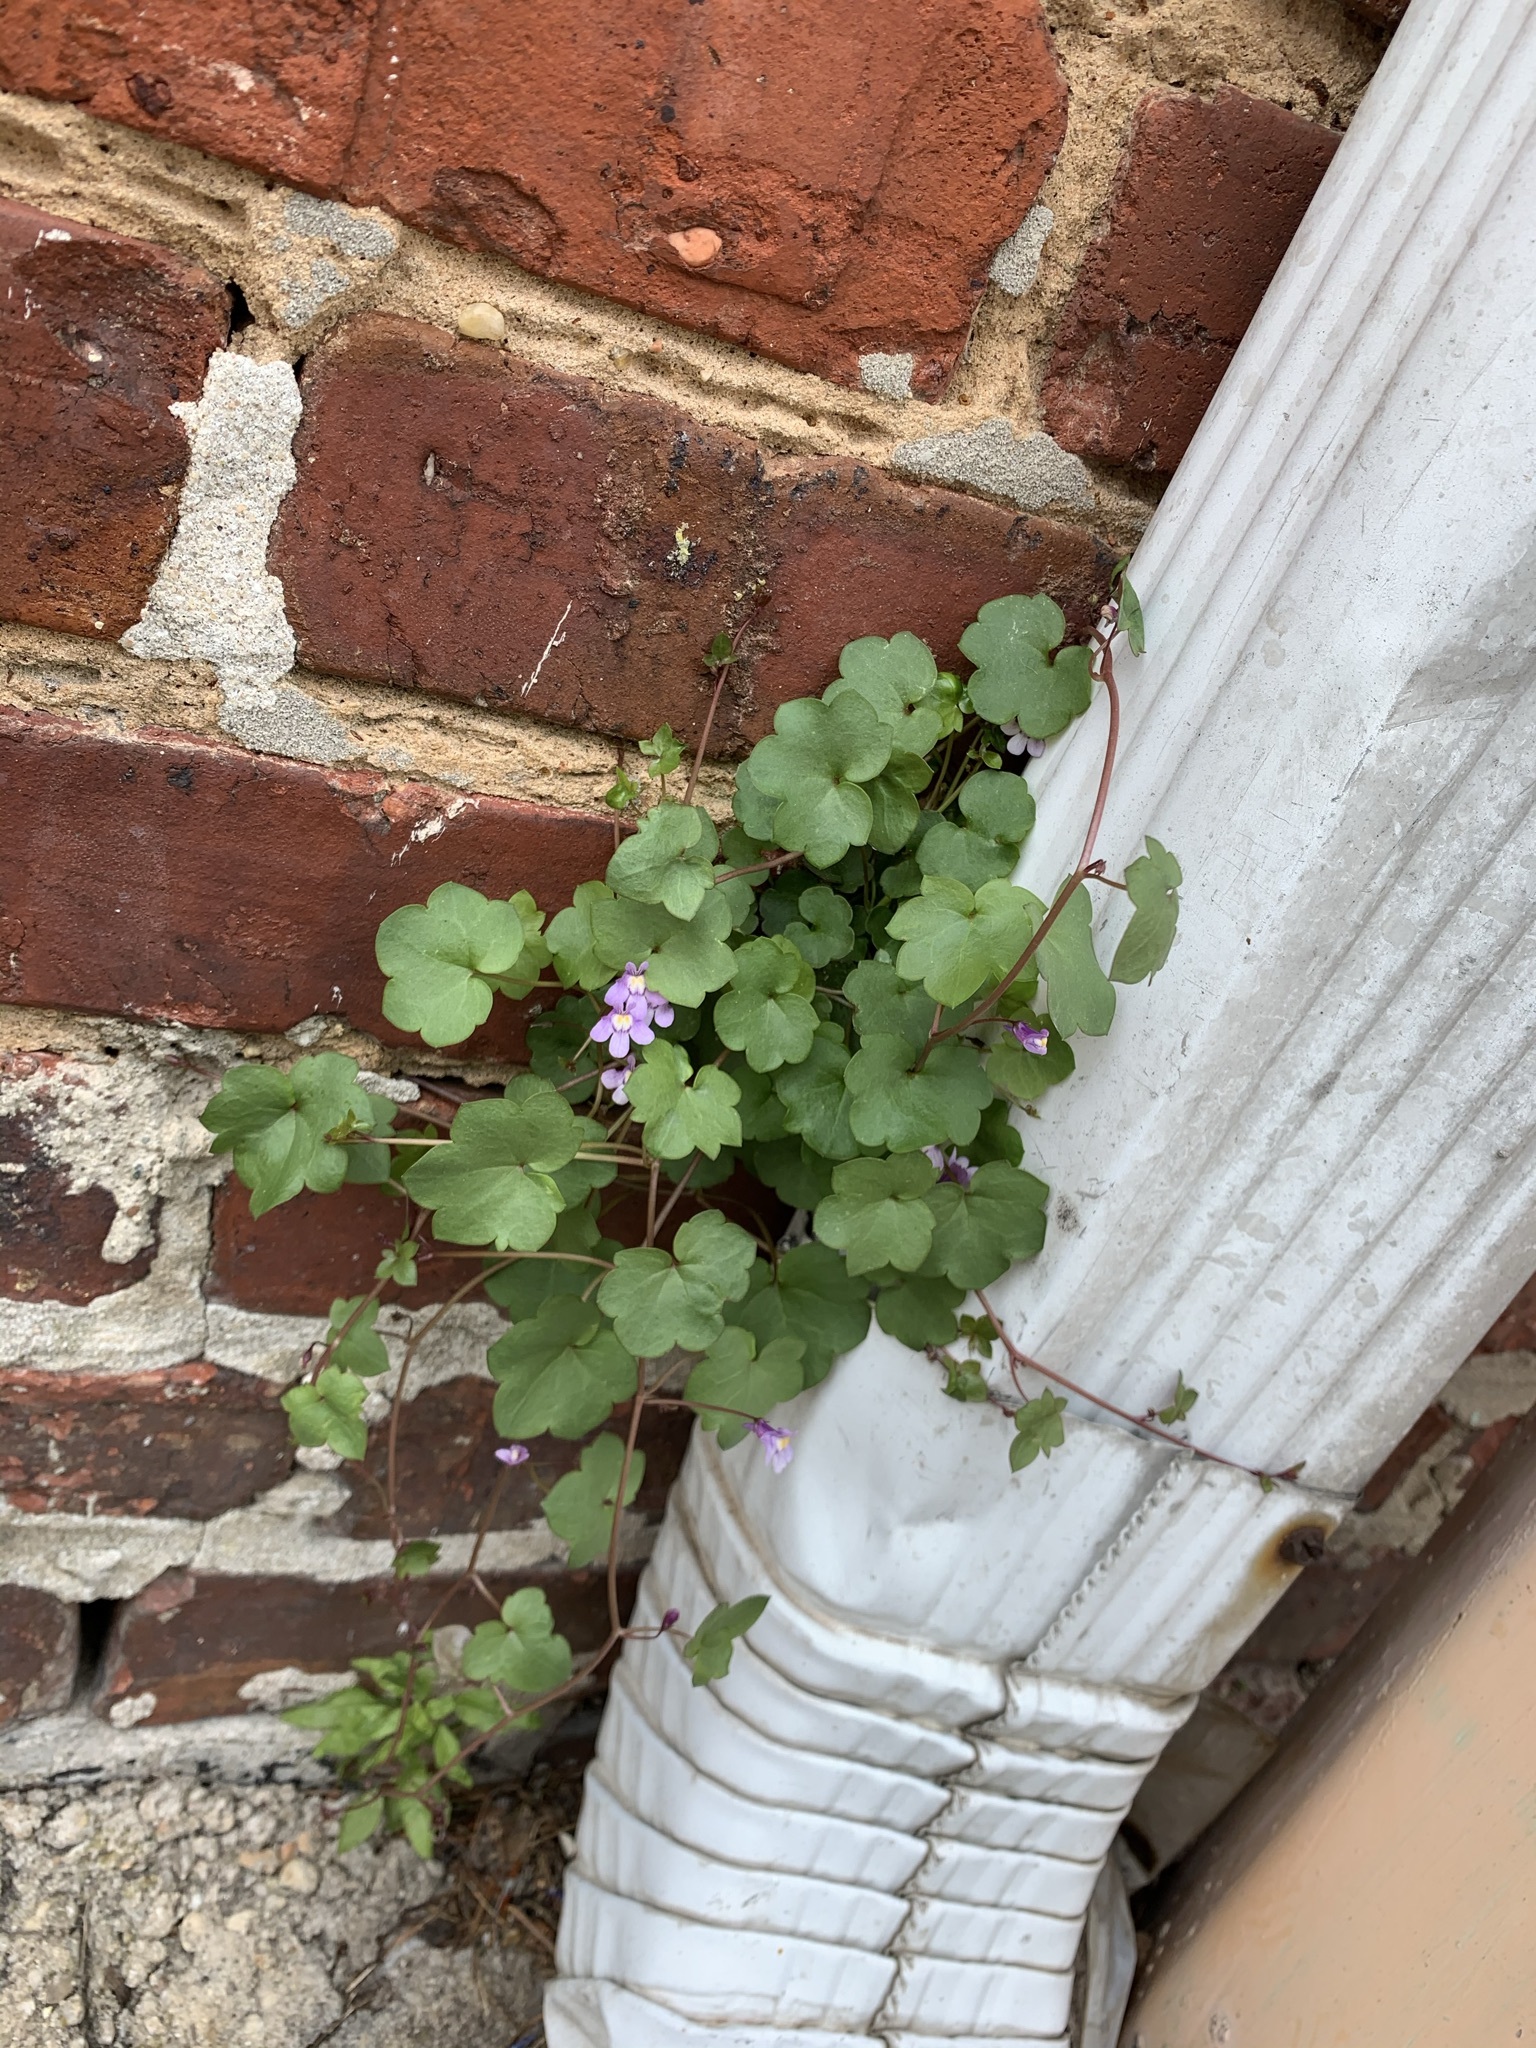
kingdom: Plantae
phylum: Tracheophyta
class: Magnoliopsida
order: Lamiales
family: Plantaginaceae
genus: Cymbalaria
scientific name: Cymbalaria muralis
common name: Ivy-leaved toadflax
